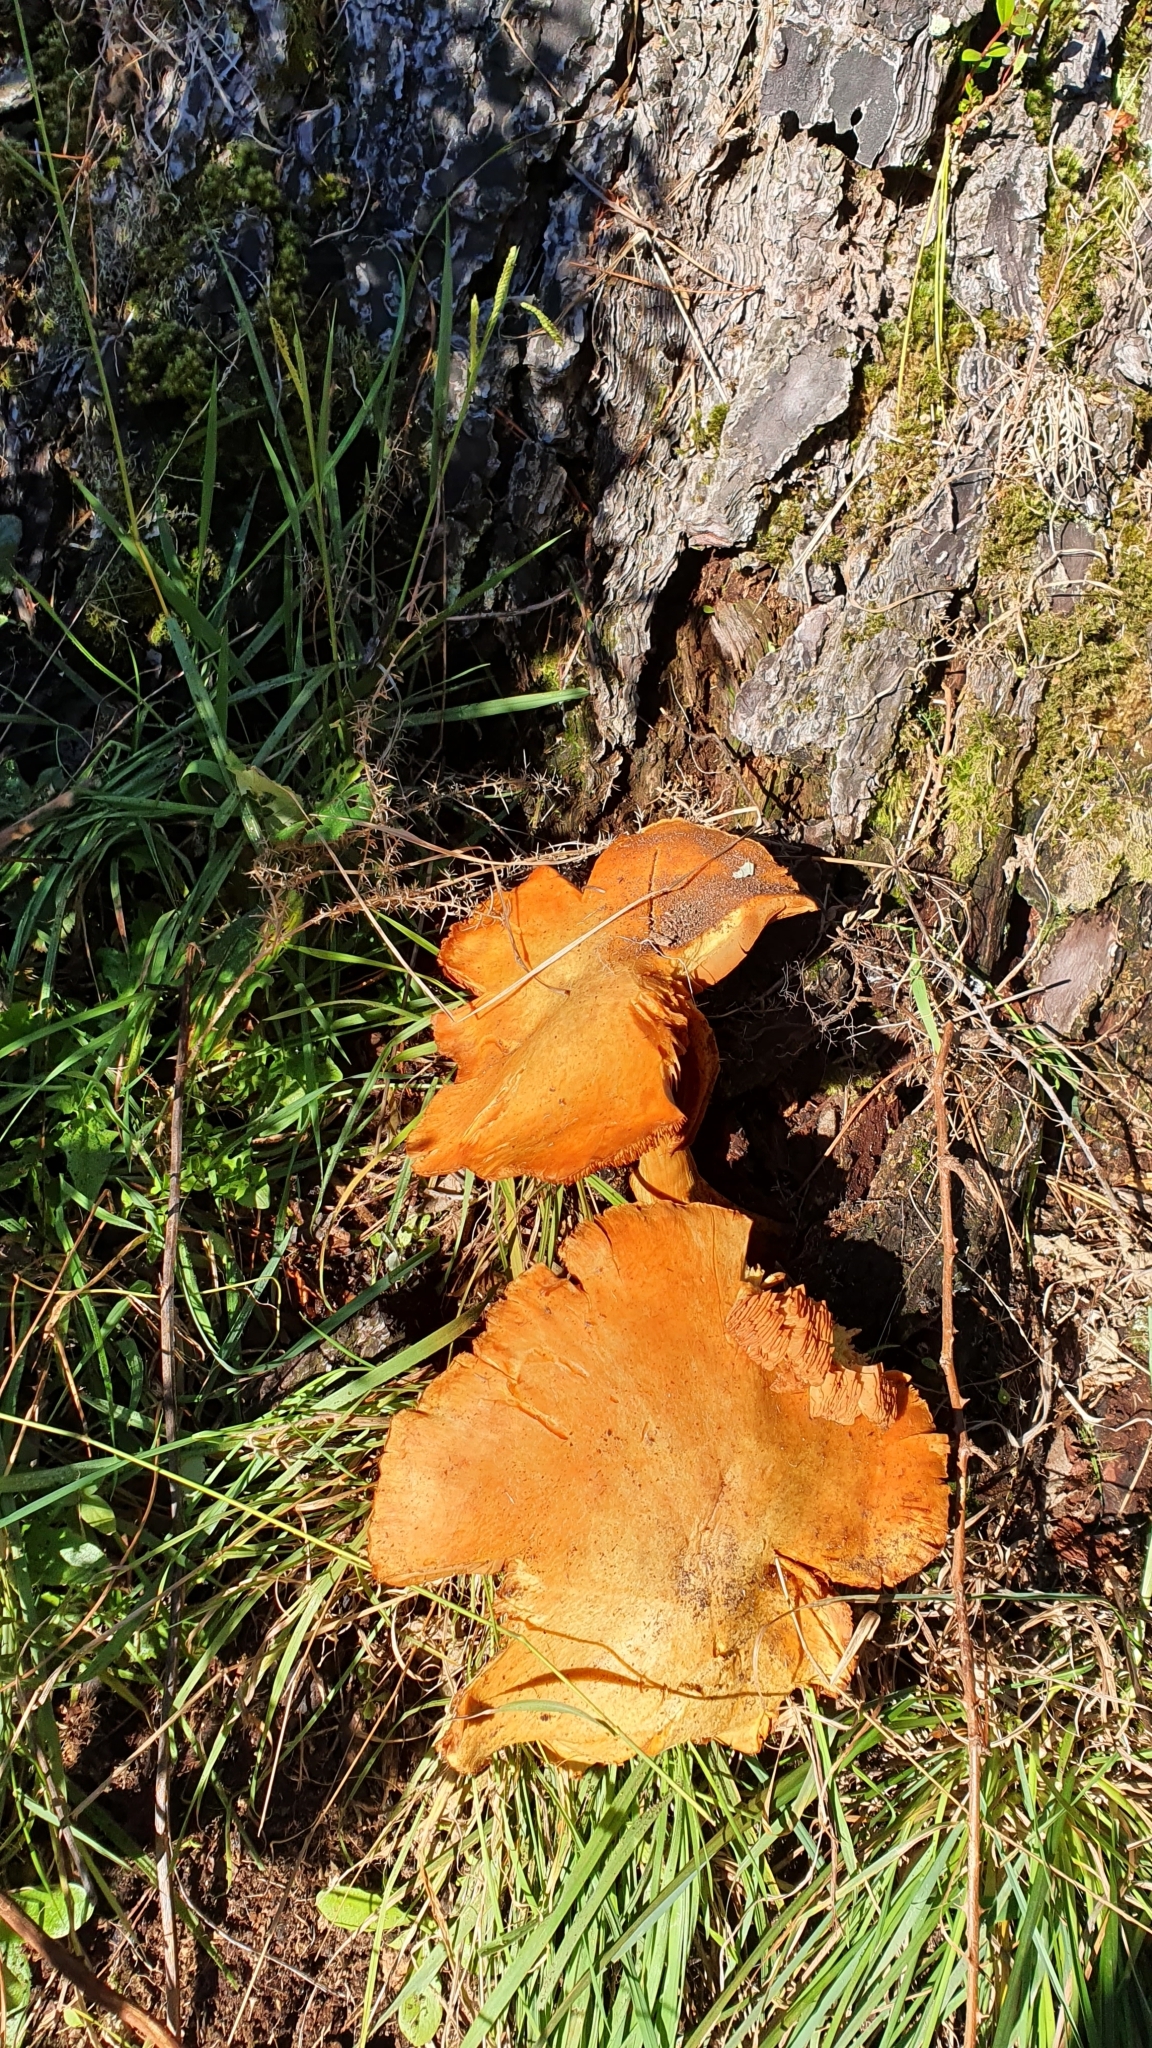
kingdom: Fungi
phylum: Basidiomycota
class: Agaricomycetes
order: Agaricales
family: Hymenogastraceae
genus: Gymnopilus
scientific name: Gymnopilus junonius
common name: Spectacular rustgill
